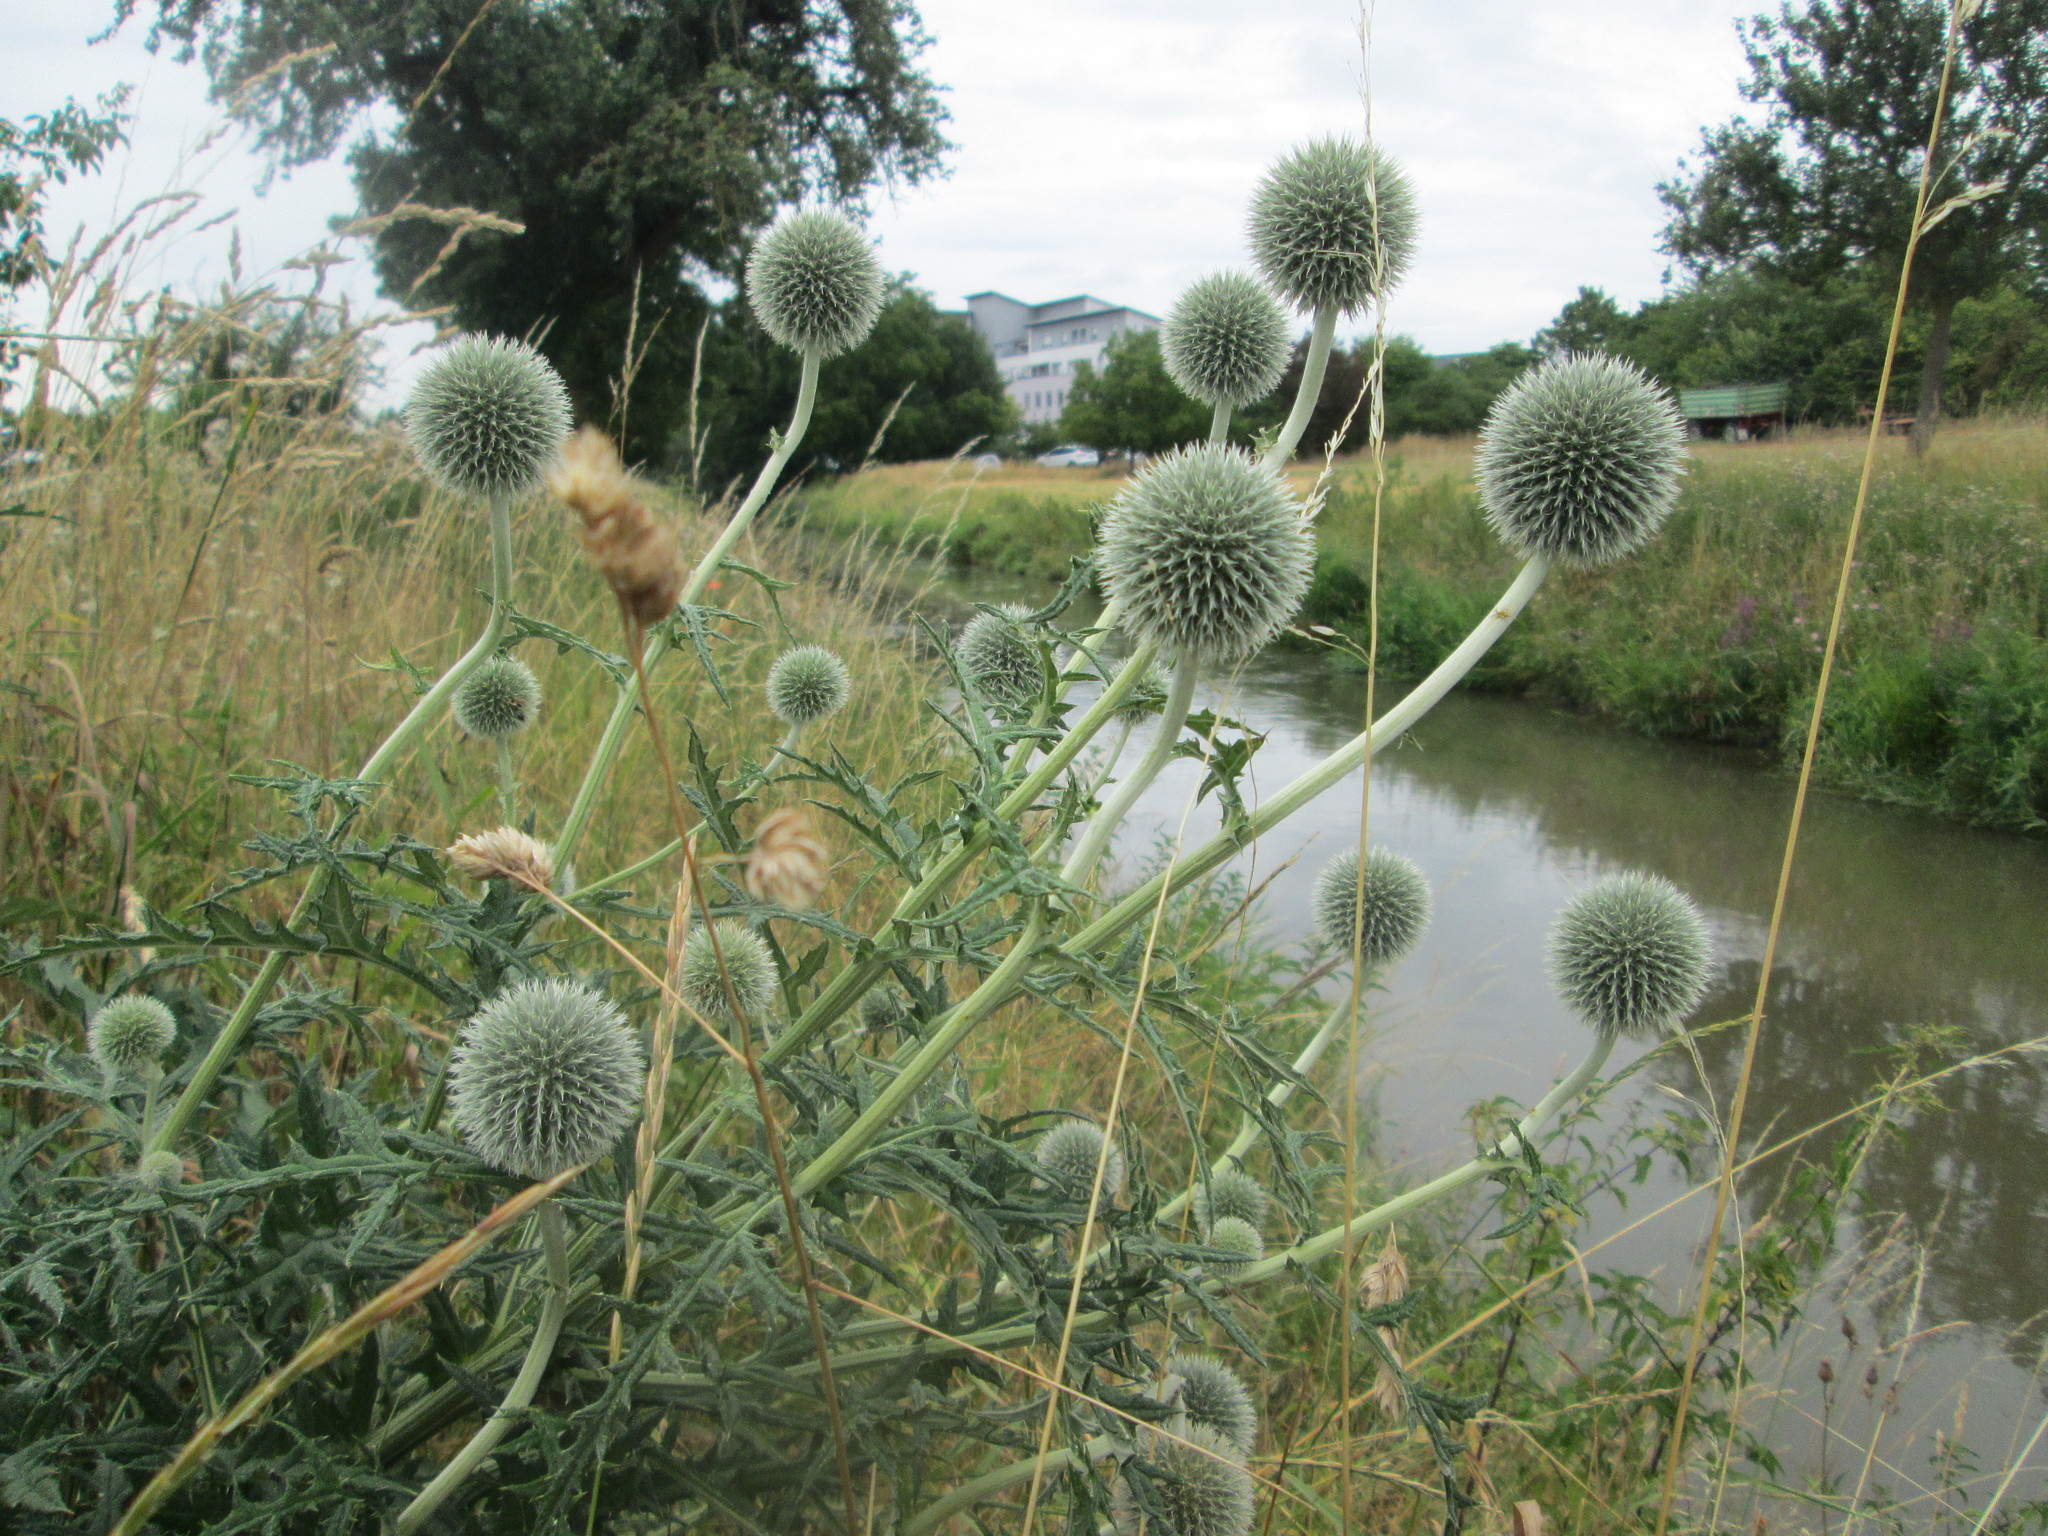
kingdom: Plantae
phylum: Tracheophyta
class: Magnoliopsida
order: Asterales
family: Asteraceae
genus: Echinops
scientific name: Echinops exaltatus
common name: Globe-thistle
